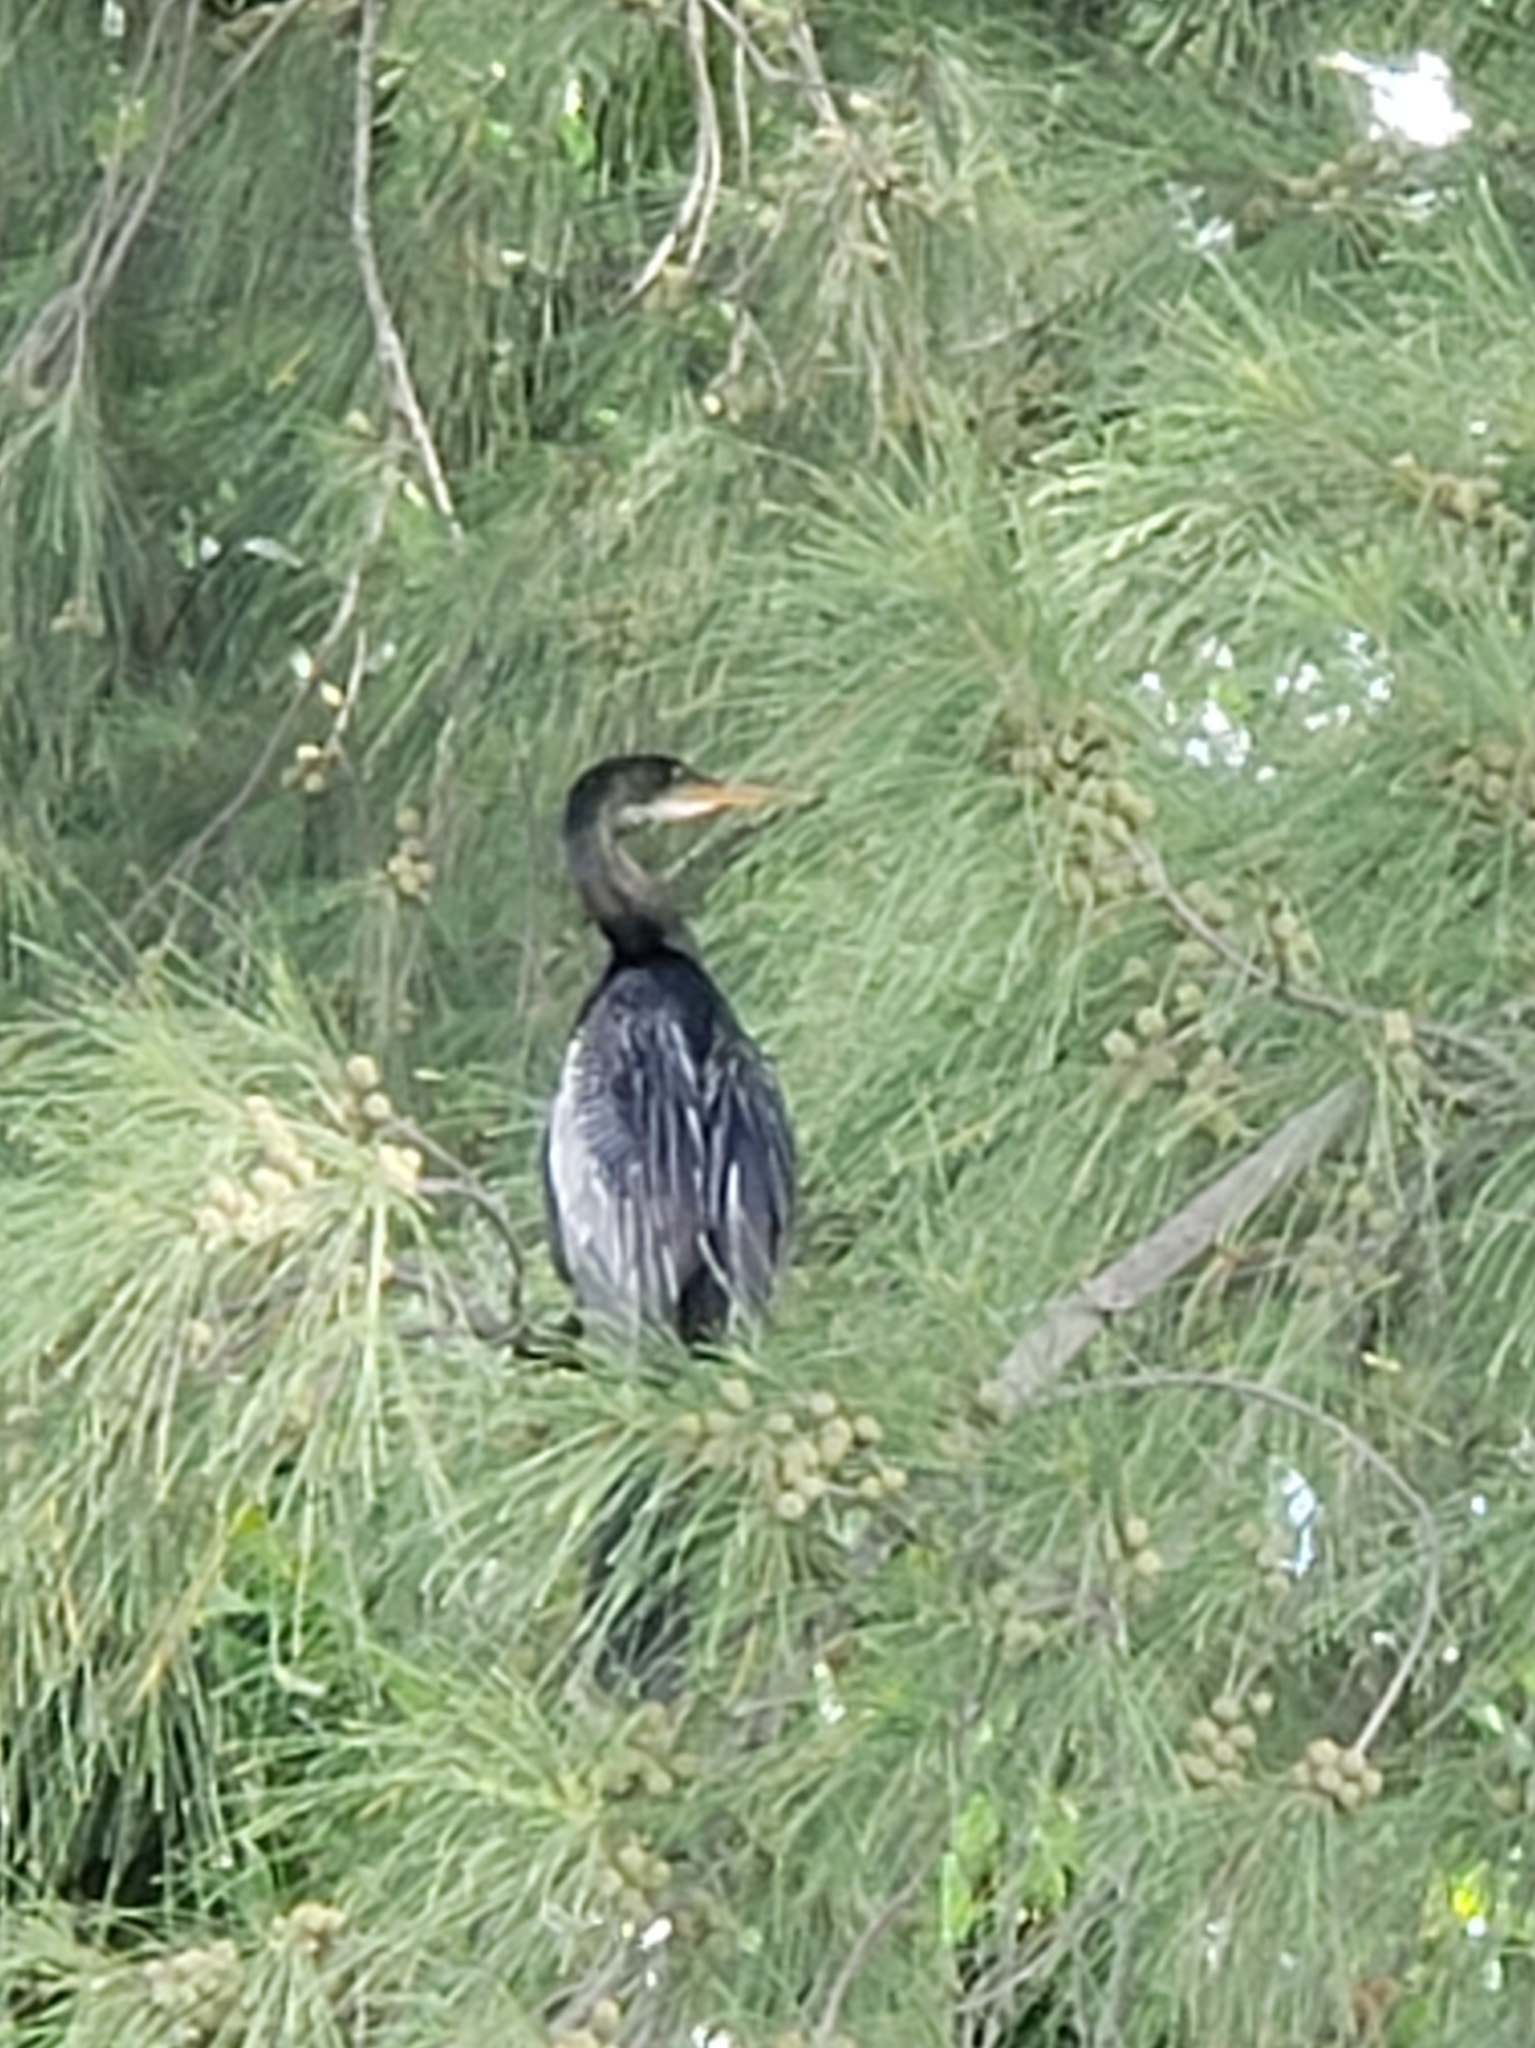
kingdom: Animalia
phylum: Chordata
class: Aves
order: Suliformes
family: Anhingidae
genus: Anhinga
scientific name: Anhinga anhinga
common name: Anhinga
